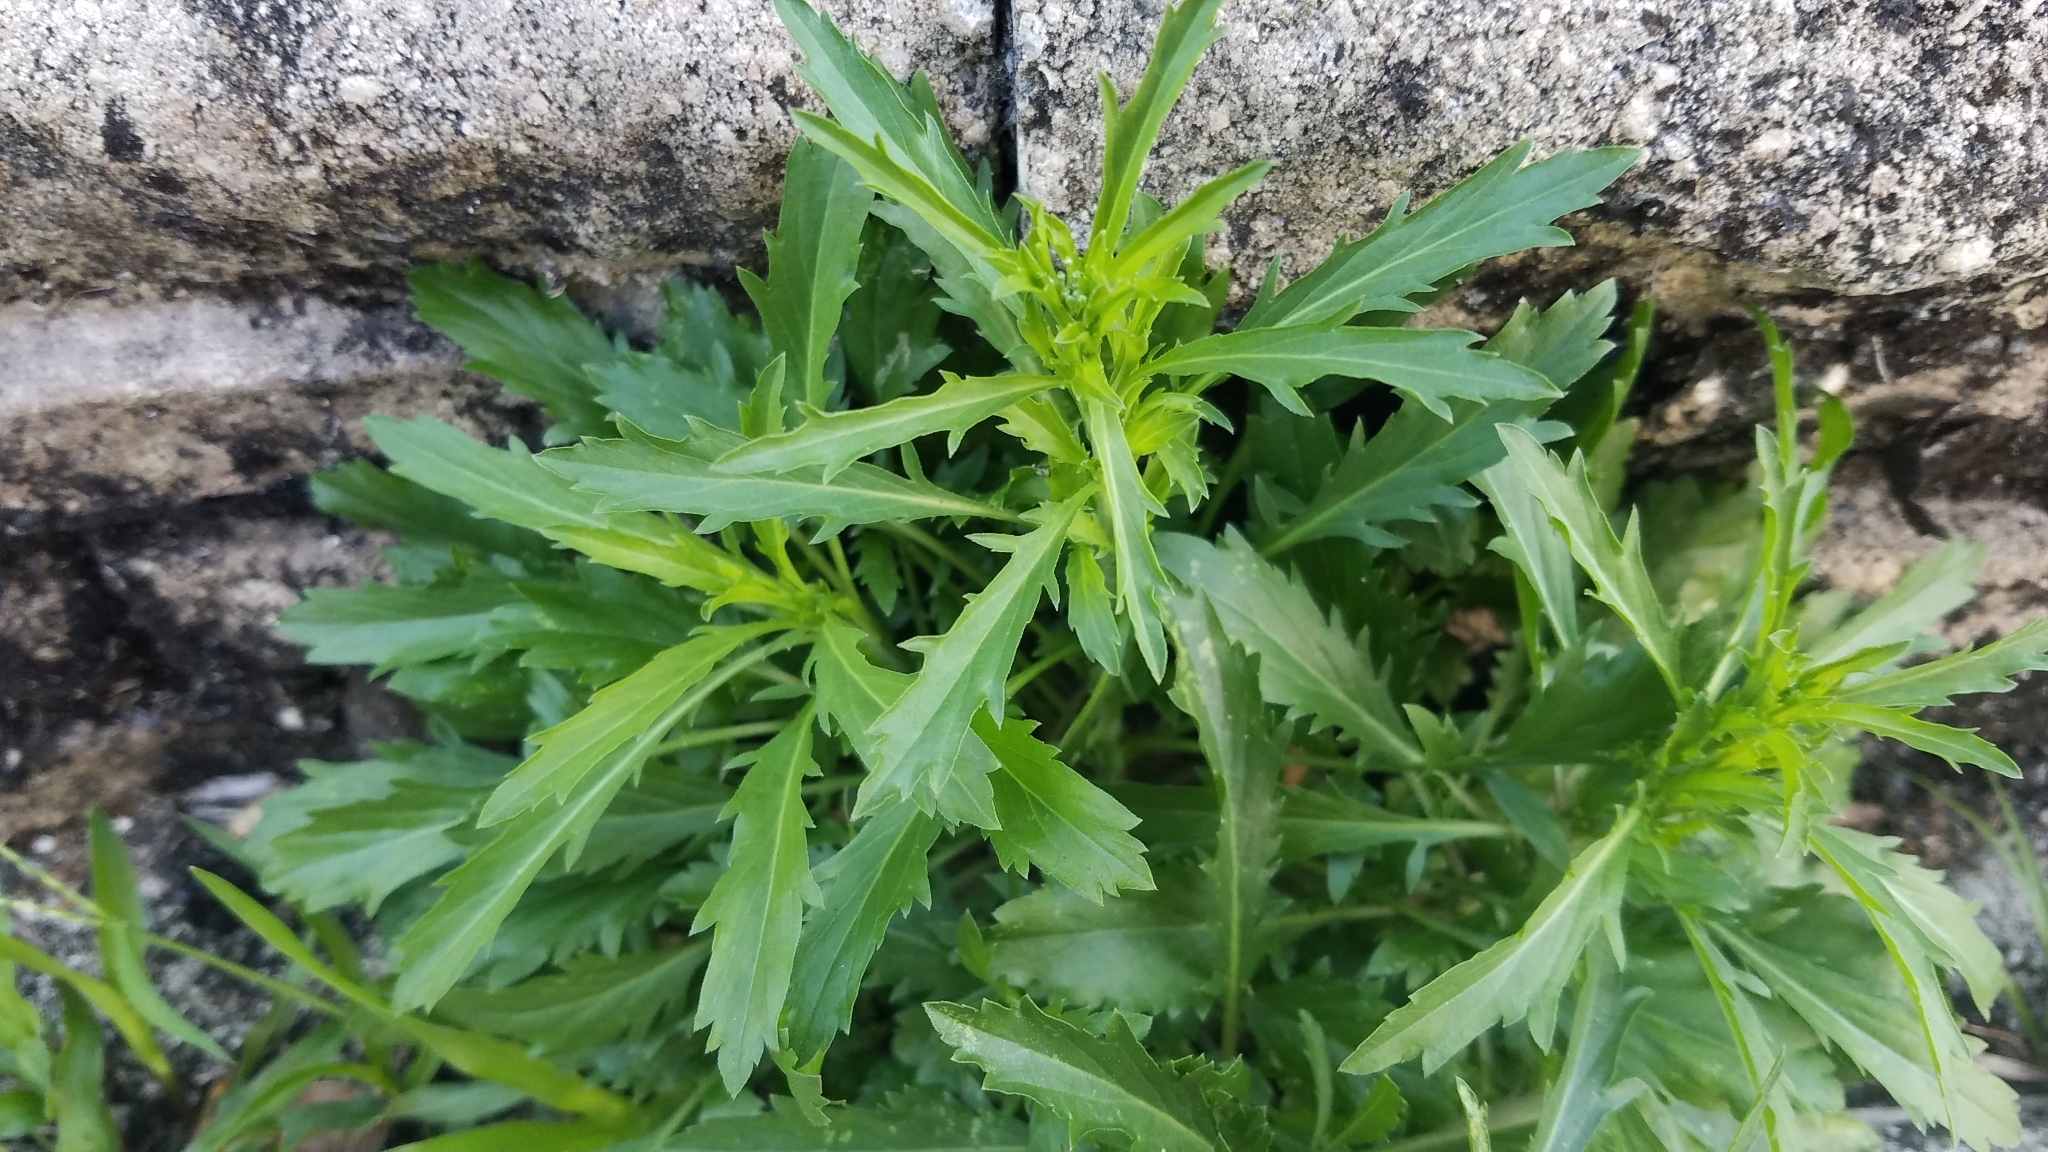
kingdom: Plantae
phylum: Tracheophyta
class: Magnoliopsida
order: Brassicales
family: Brassicaceae
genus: Lepidium
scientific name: Lepidium virginicum
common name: Least pepperwort
